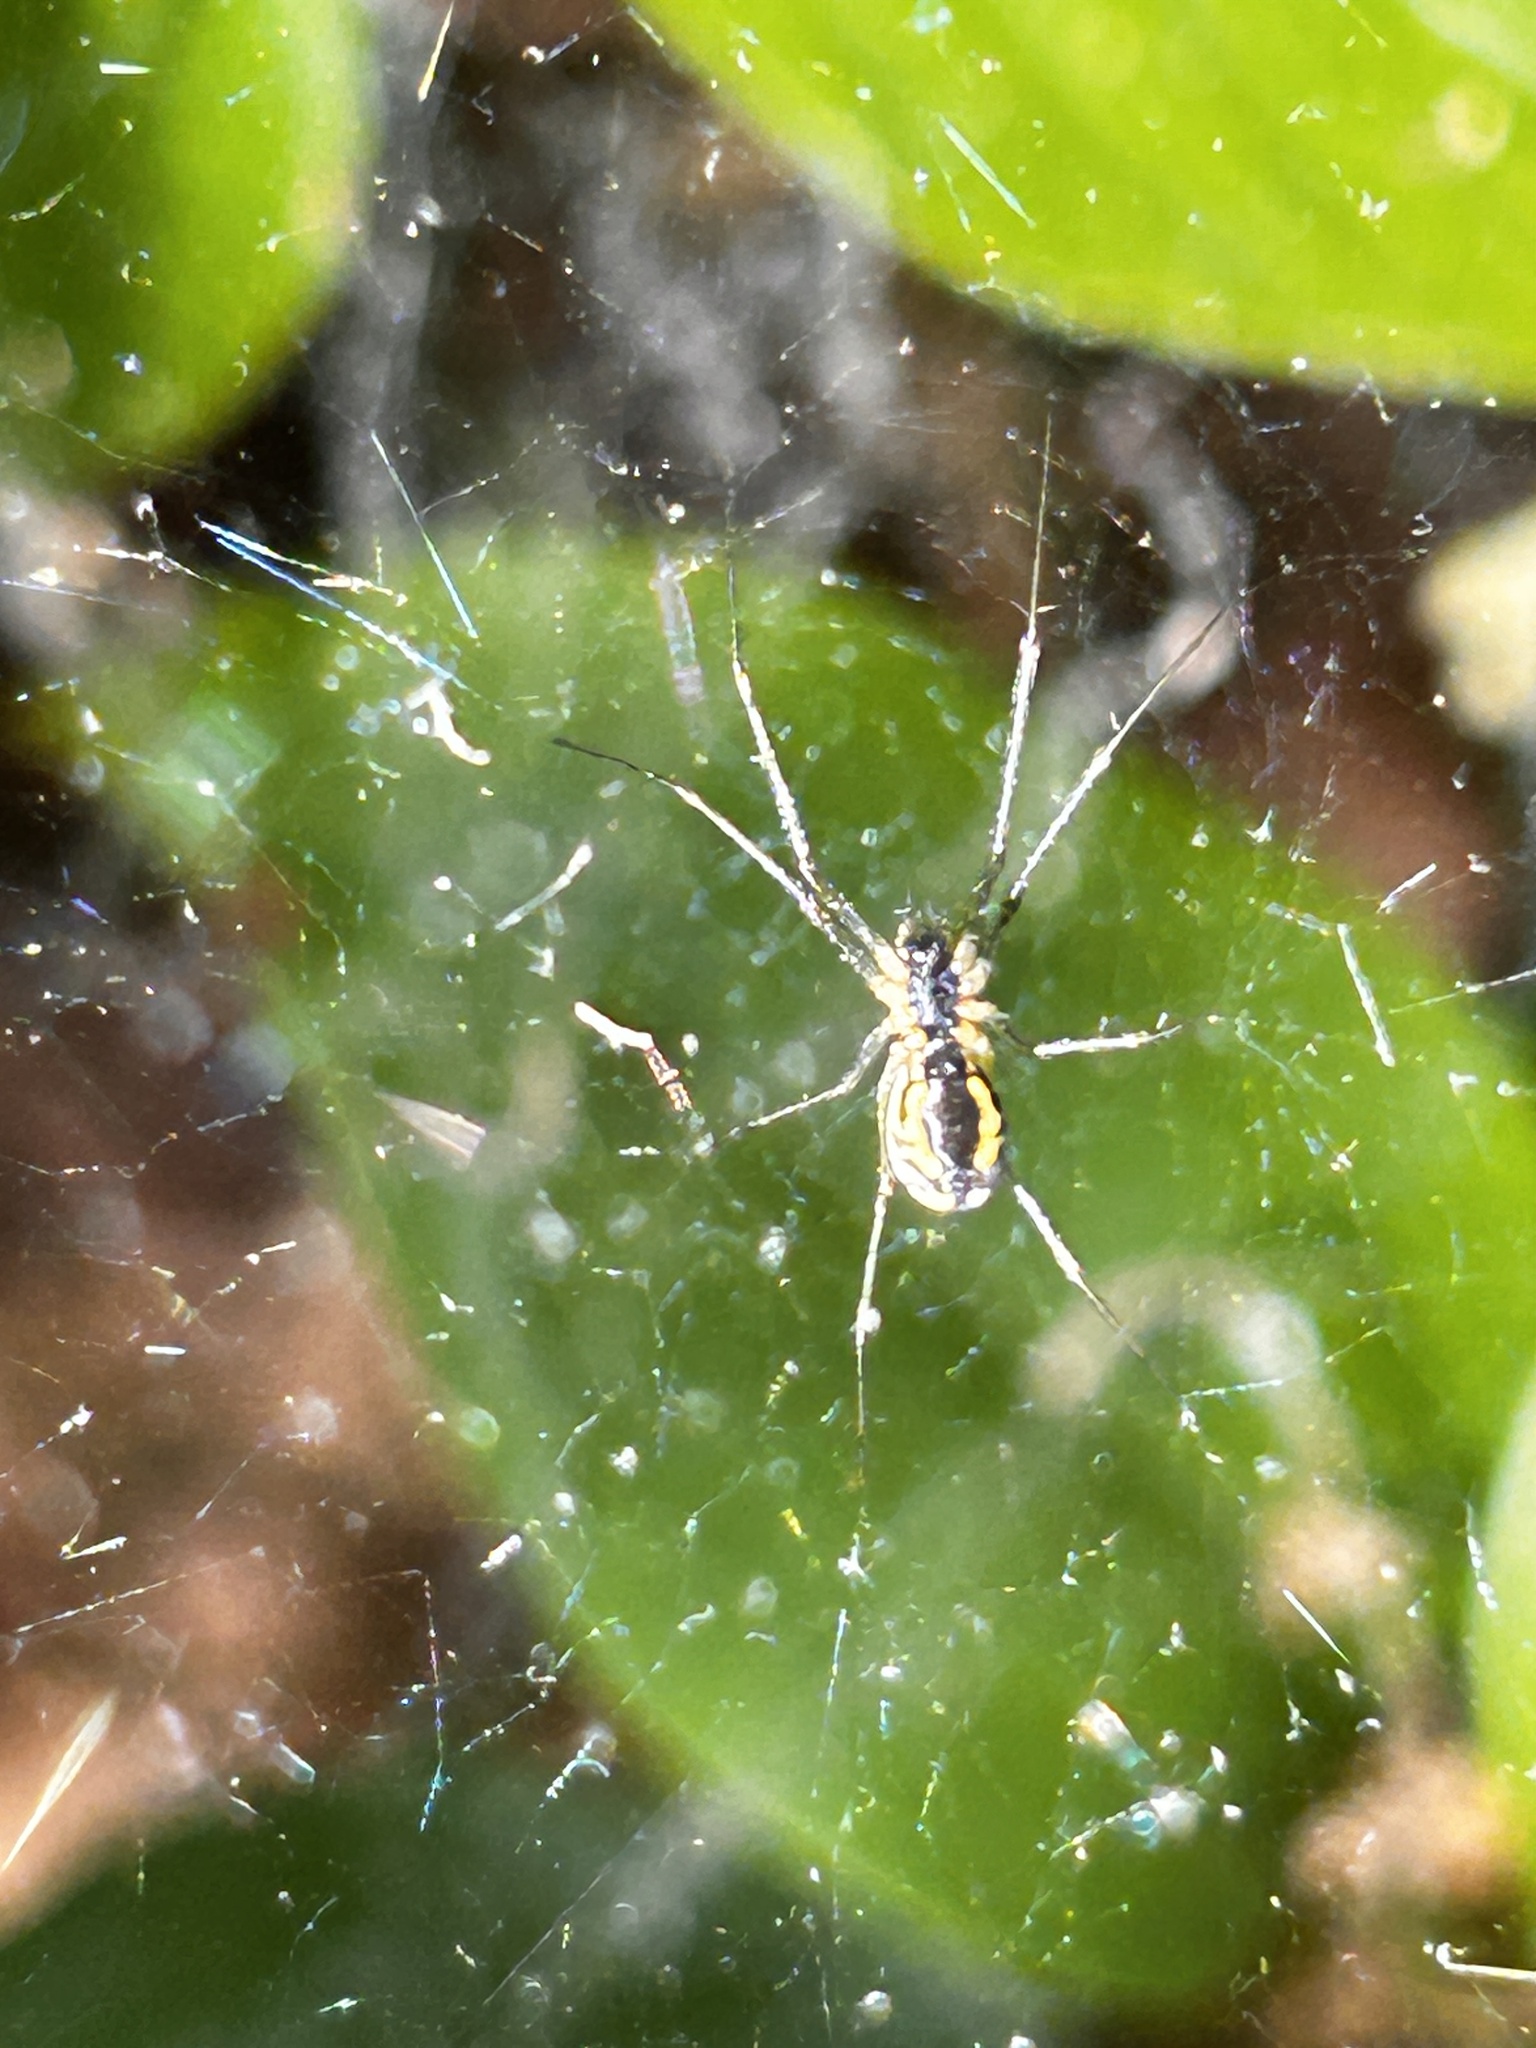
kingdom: Animalia
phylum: Arthropoda
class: Arachnida
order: Araneae
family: Linyphiidae
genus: Neriene
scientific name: Neriene radiata
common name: Filmy dome spider
